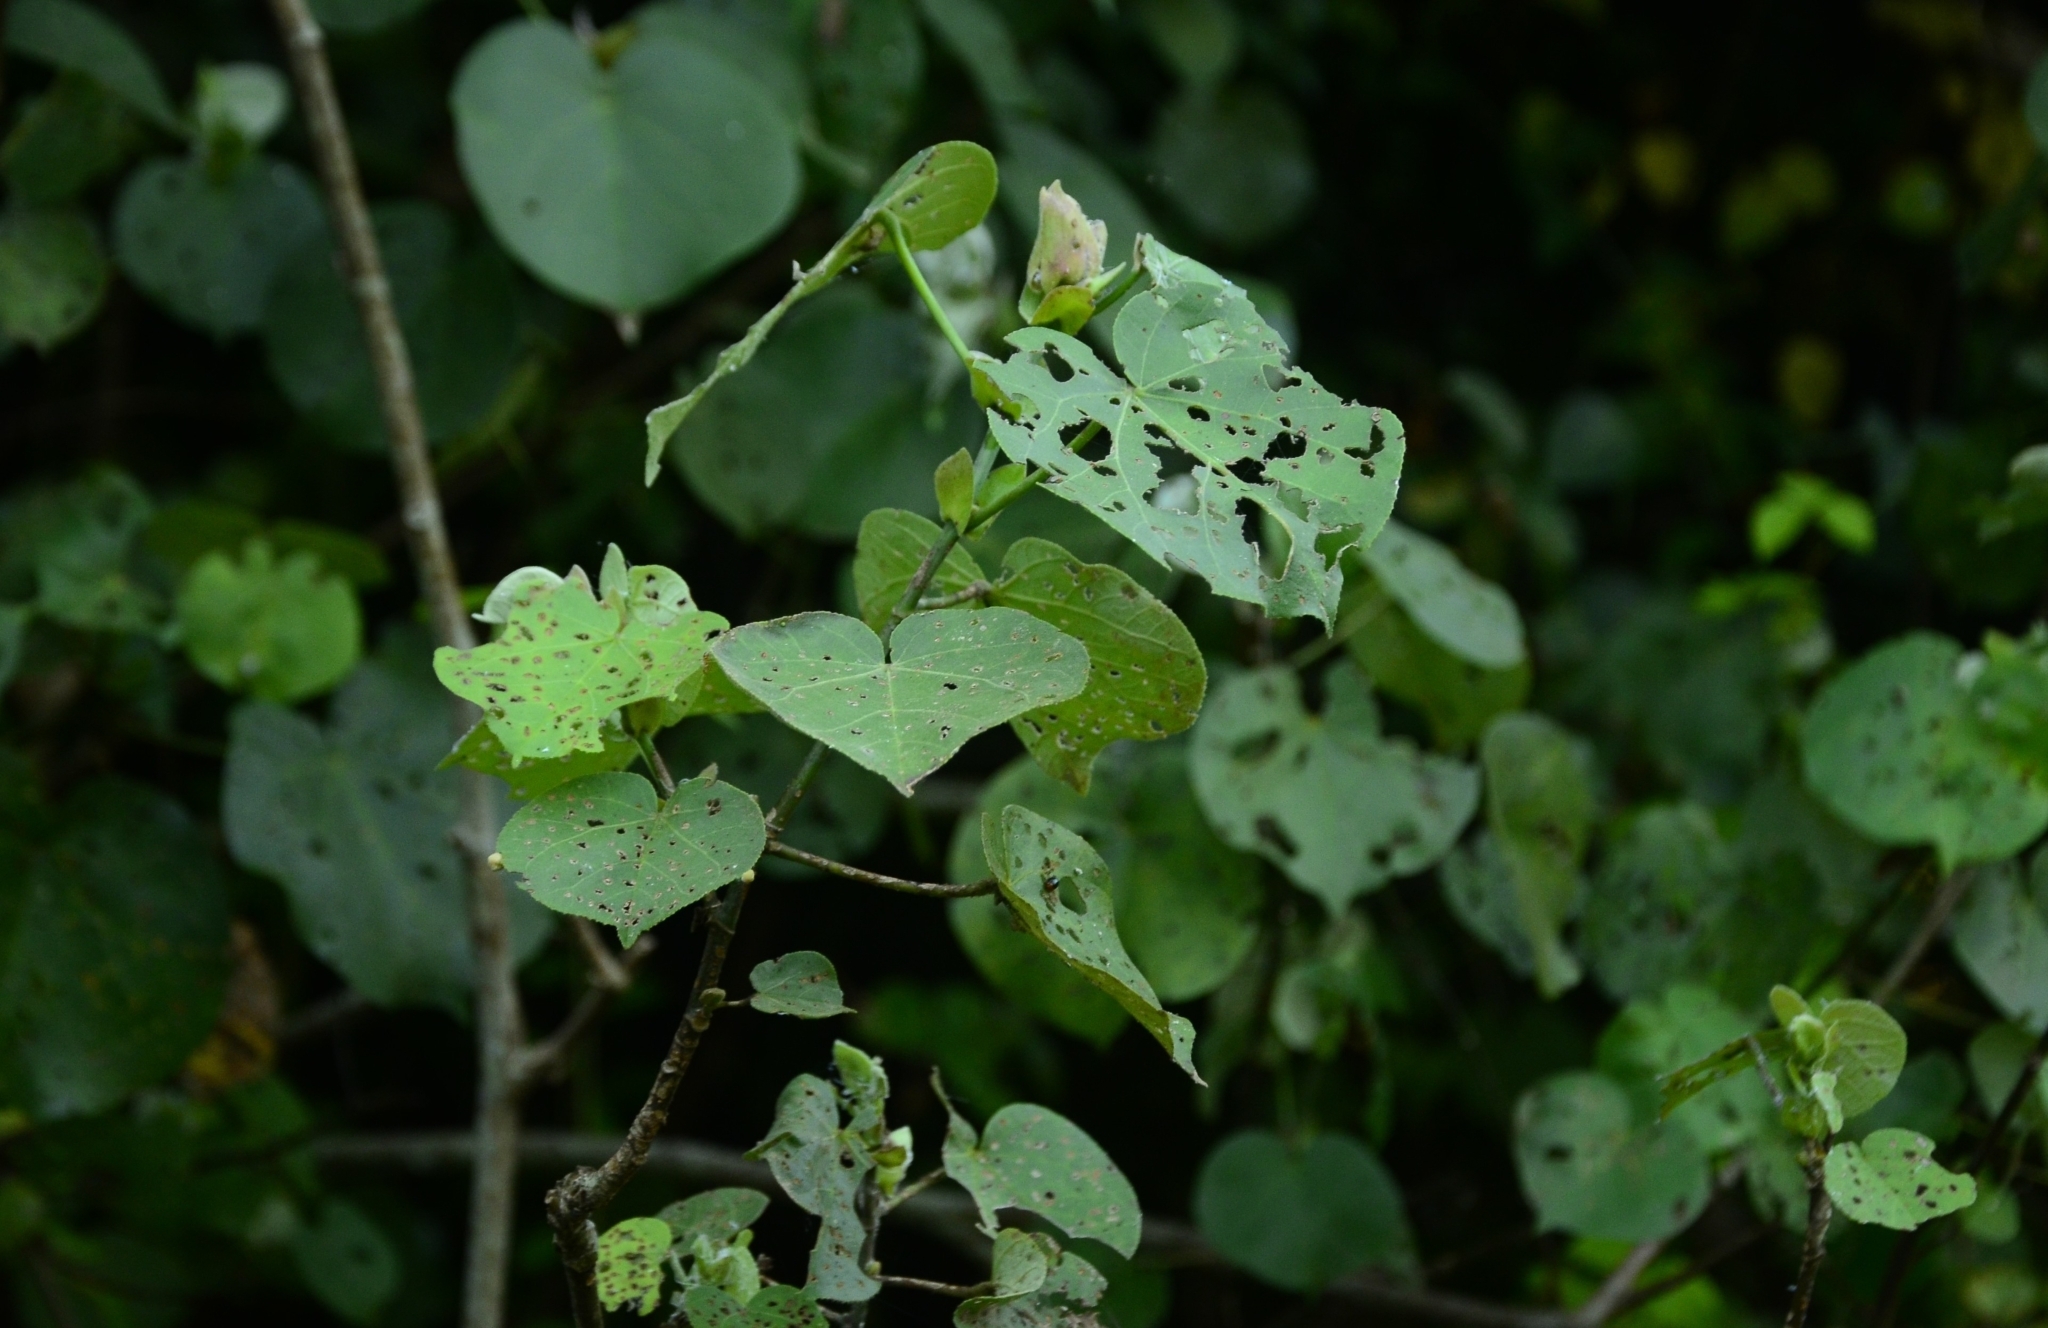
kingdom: Plantae
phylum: Tracheophyta
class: Magnoliopsida
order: Malvales
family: Malvaceae
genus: Talipariti
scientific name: Talipariti tiliaceum
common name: Sea hibiscus
